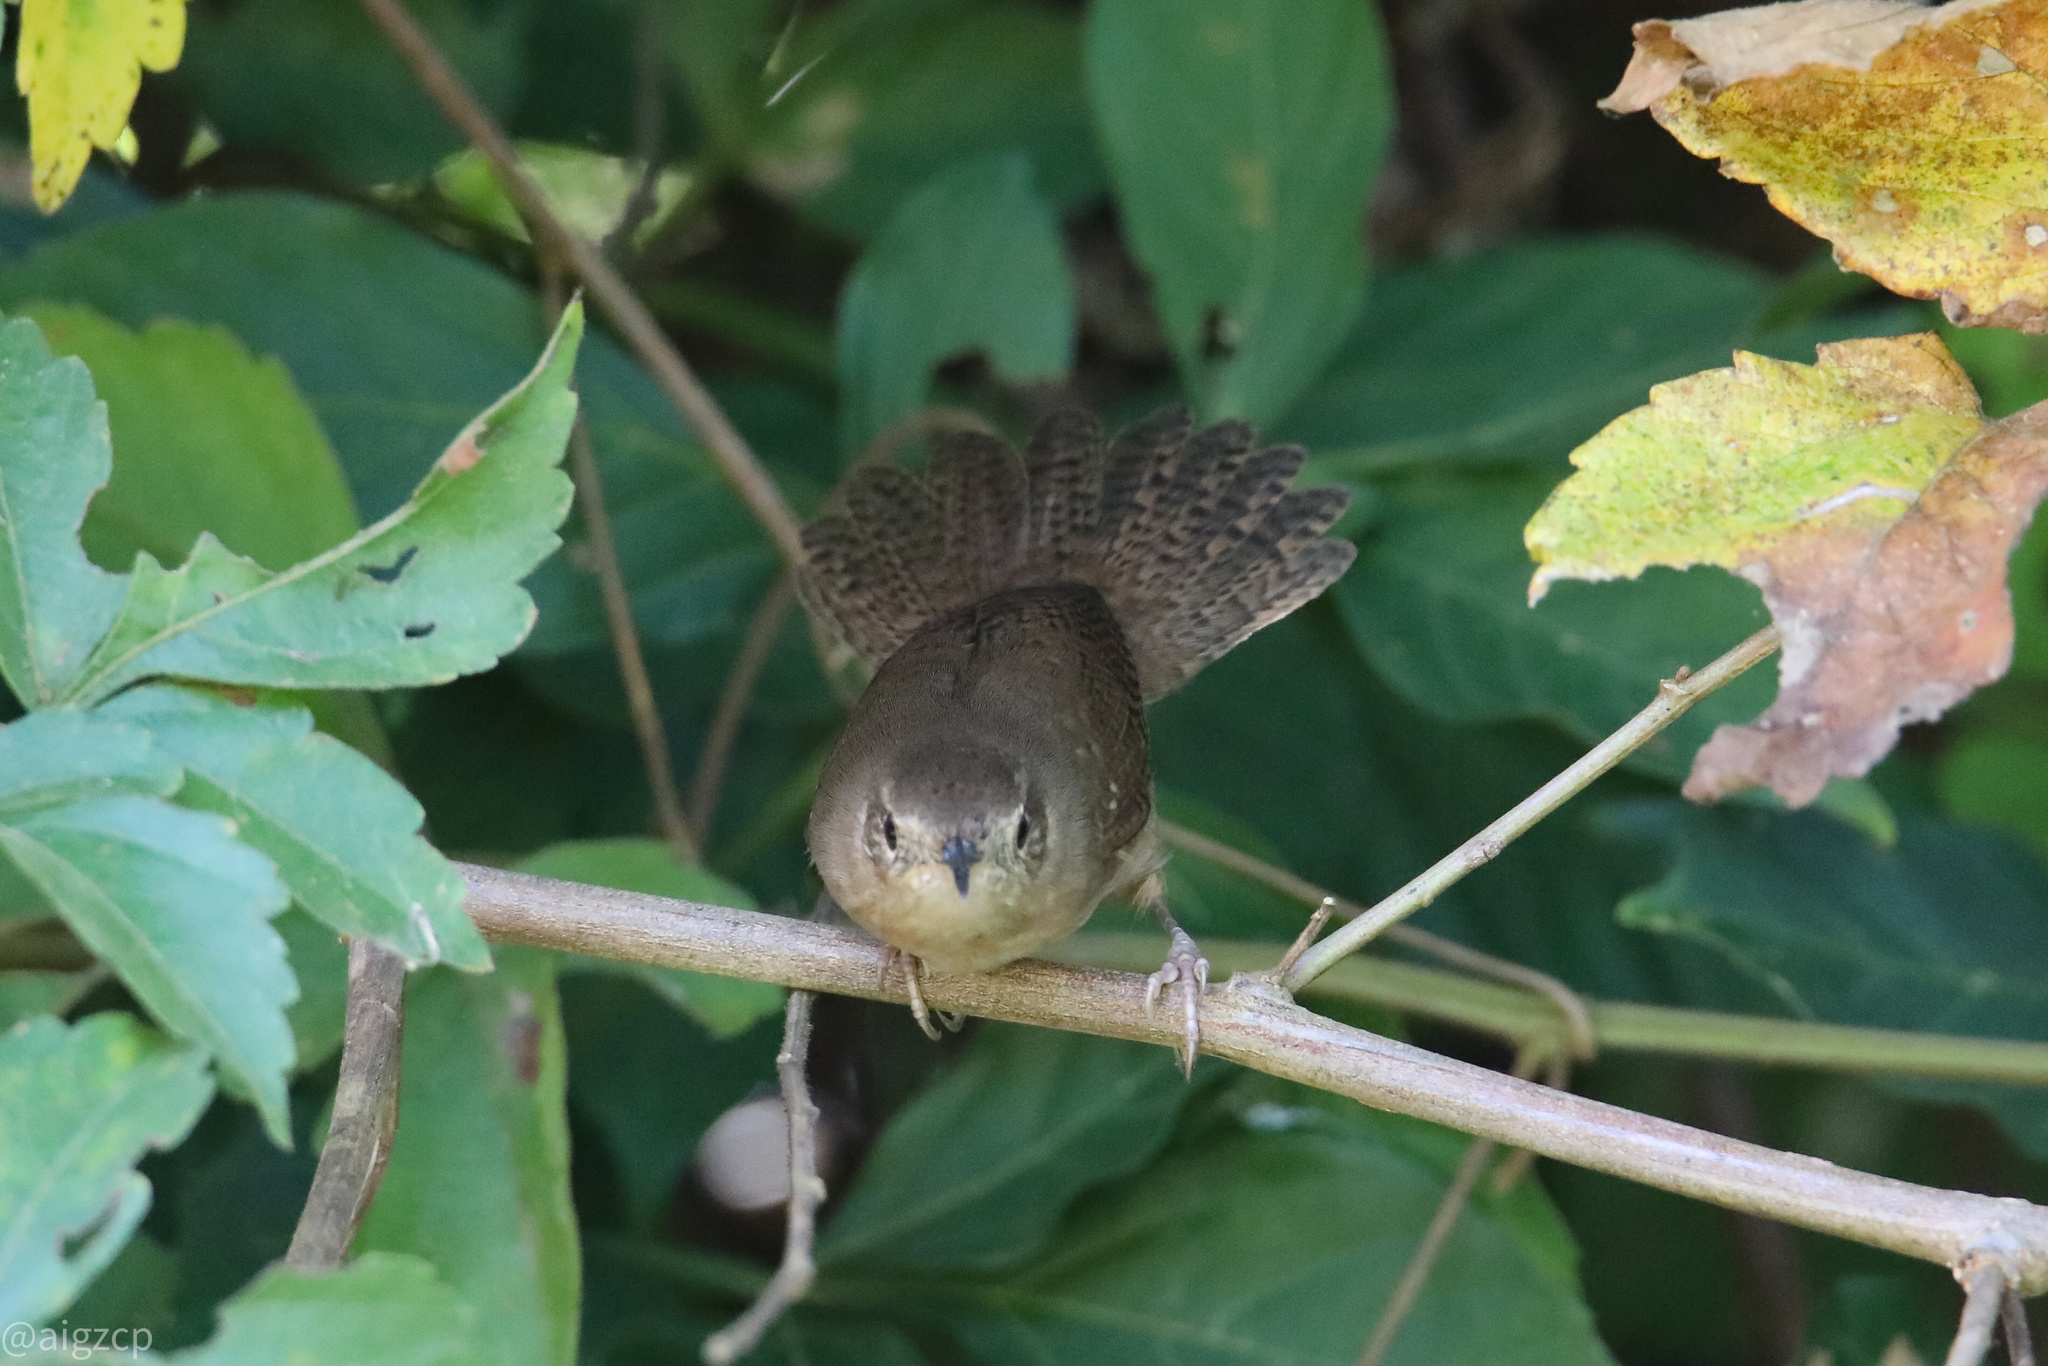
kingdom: Animalia
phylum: Chordata
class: Aves
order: Passeriformes
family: Troglodytidae
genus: Troglodytes
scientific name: Troglodytes aedon
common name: House wren
